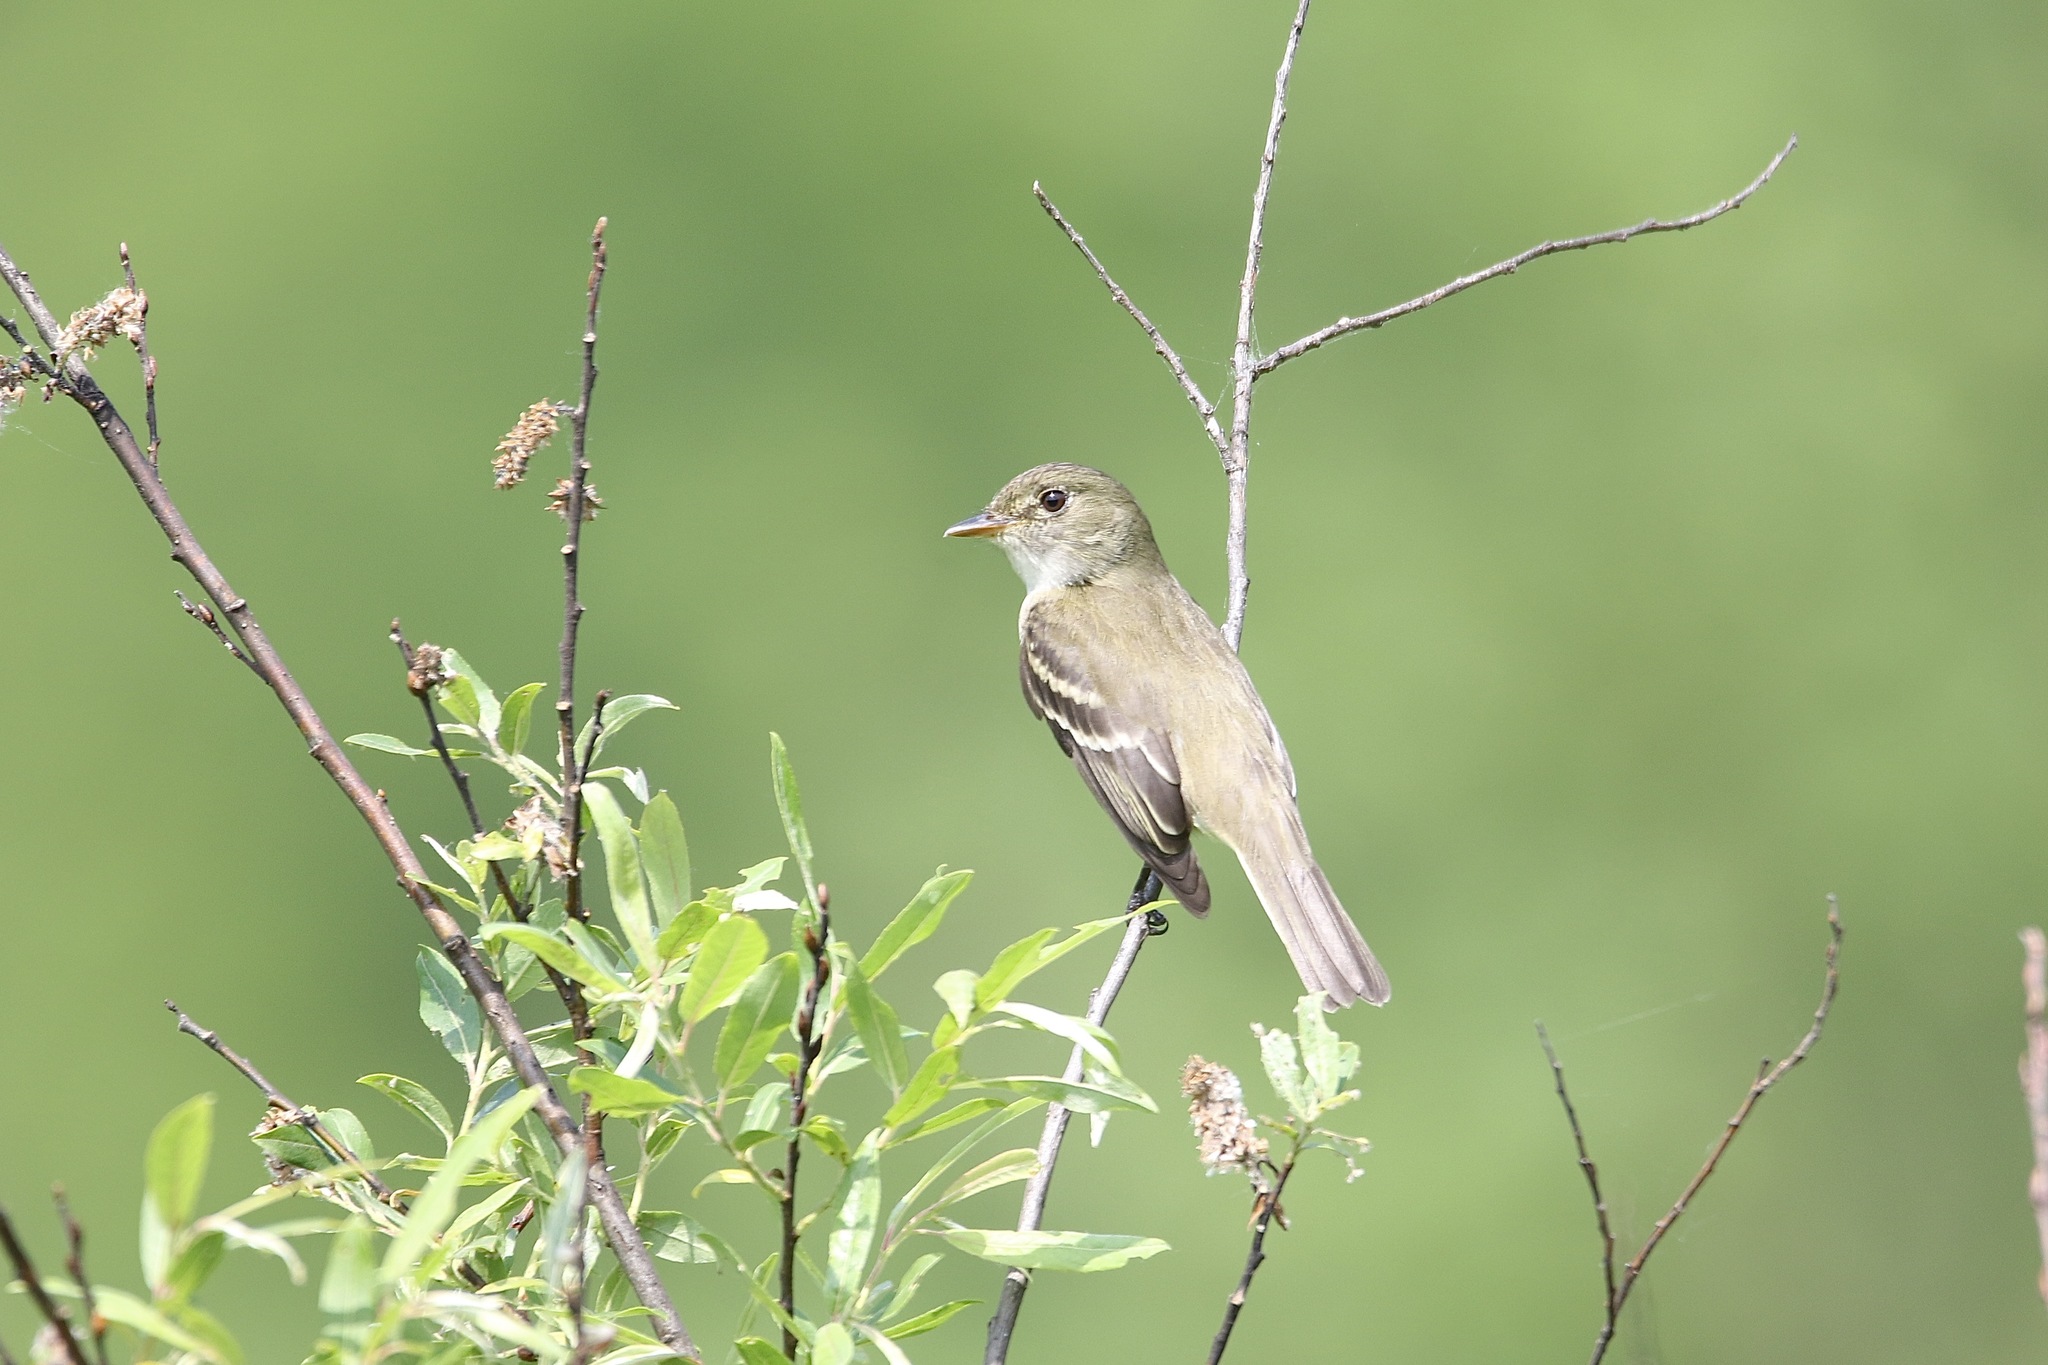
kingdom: Animalia
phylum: Chordata
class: Aves
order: Passeriformes
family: Tyrannidae
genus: Empidonax
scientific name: Empidonax alnorum
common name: Alder flycatcher
